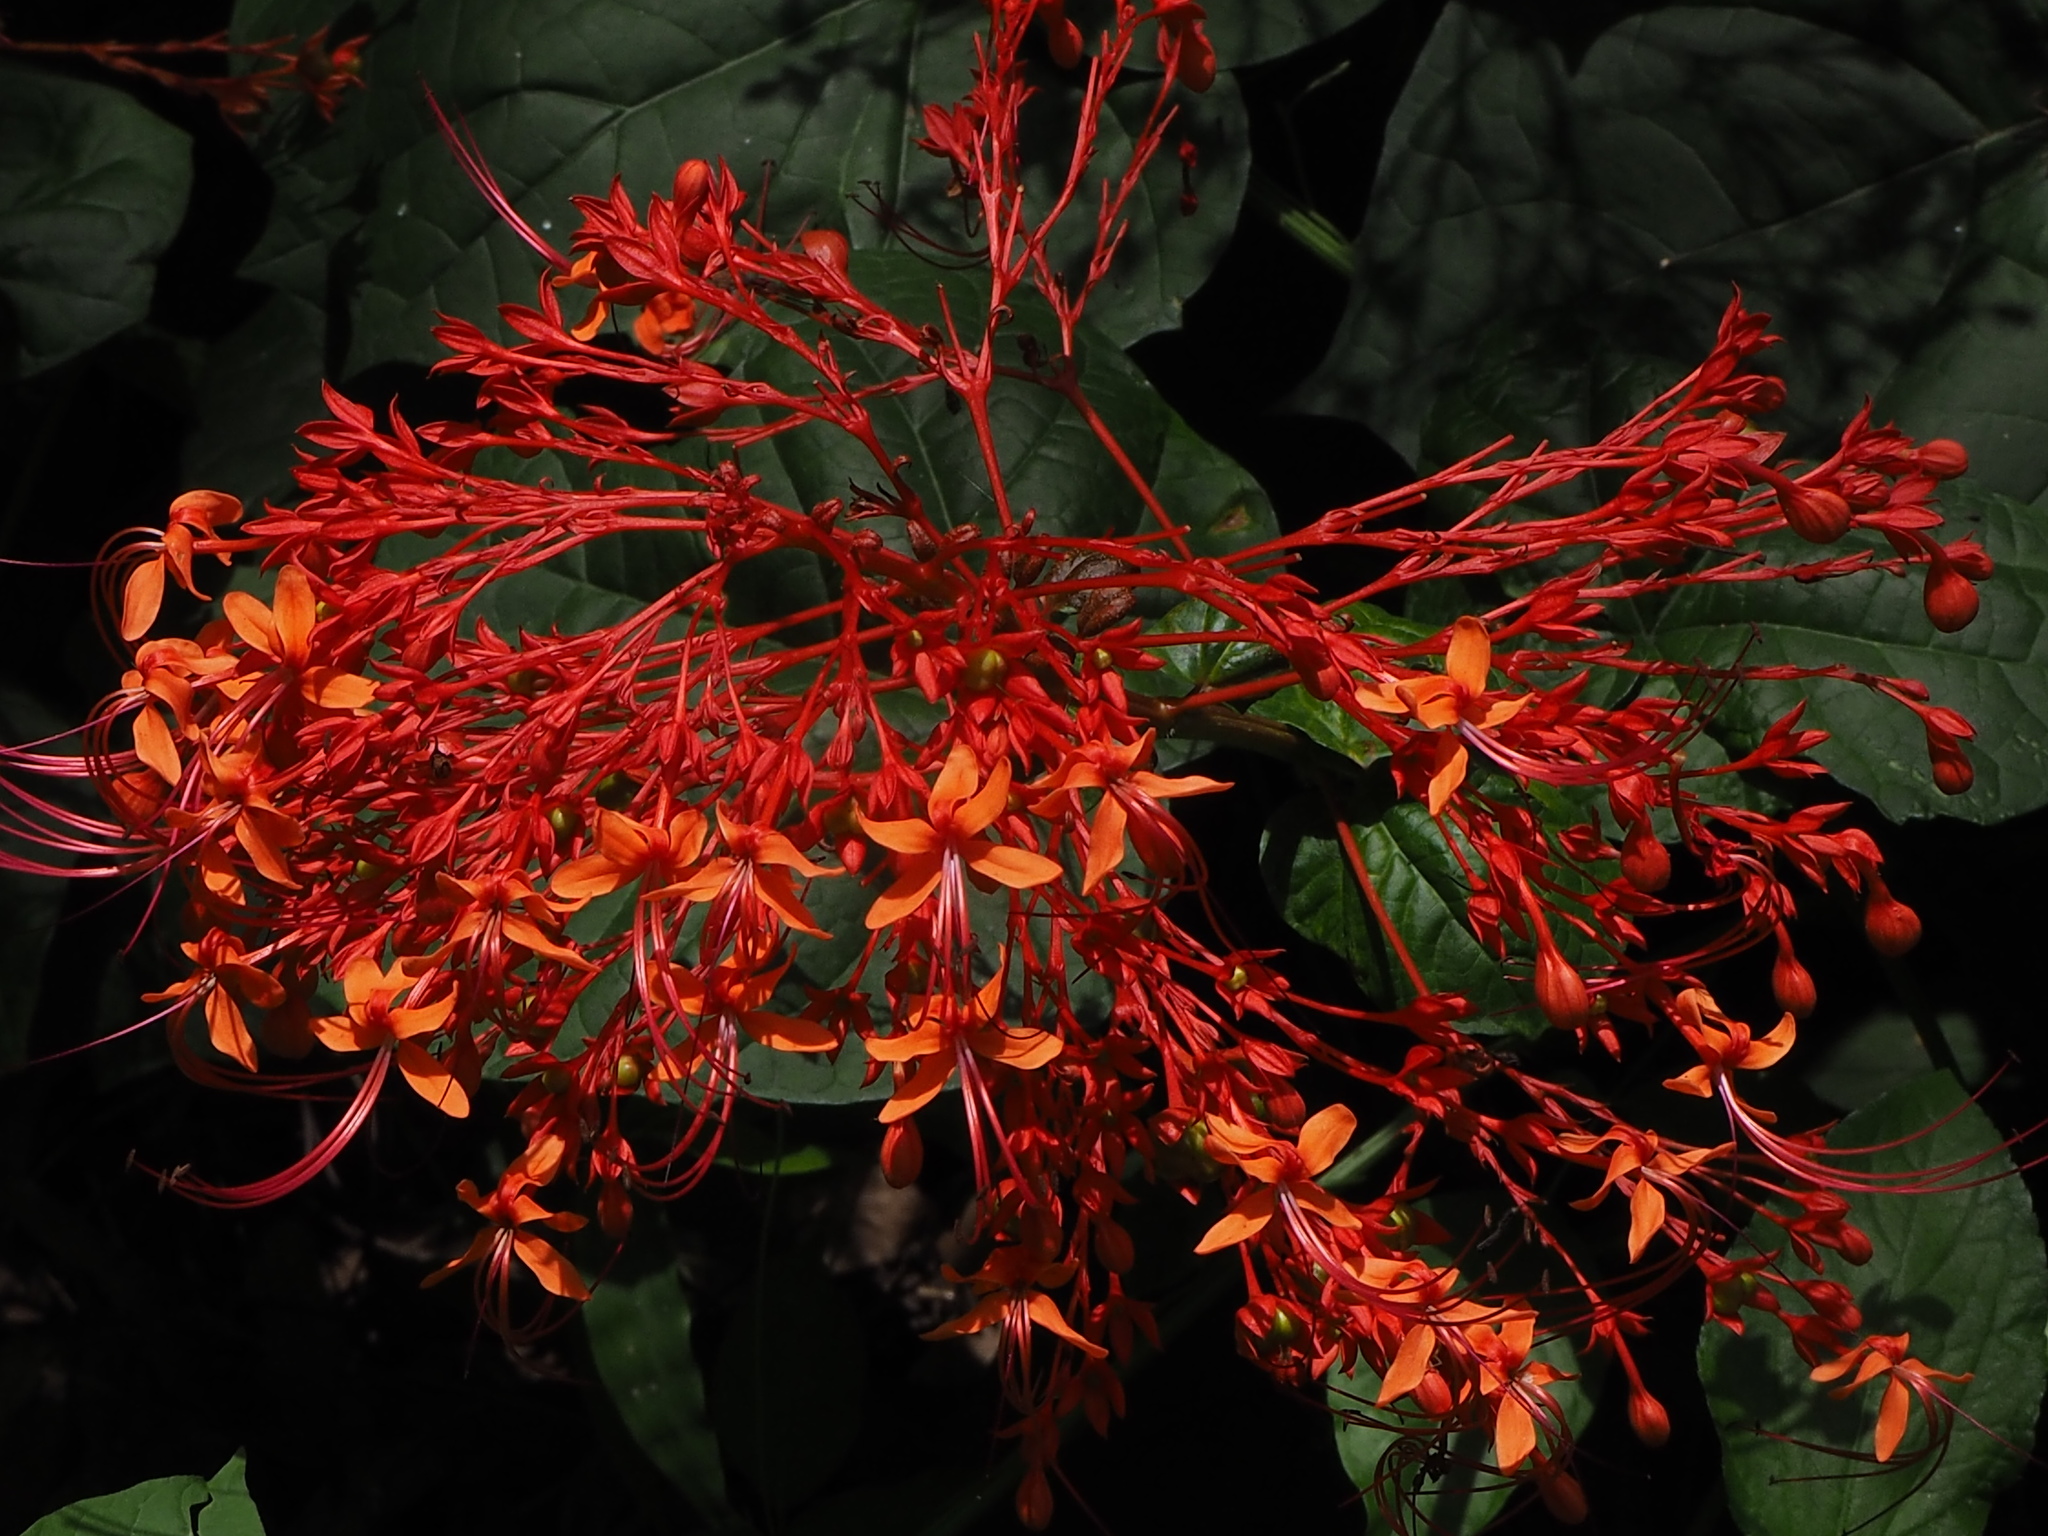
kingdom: Plantae
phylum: Tracheophyta
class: Magnoliopsida
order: Lamiales
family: Lamiaceae
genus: Clerodendrum
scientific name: Clerodendrum japonicum
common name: Japanese glorybower
